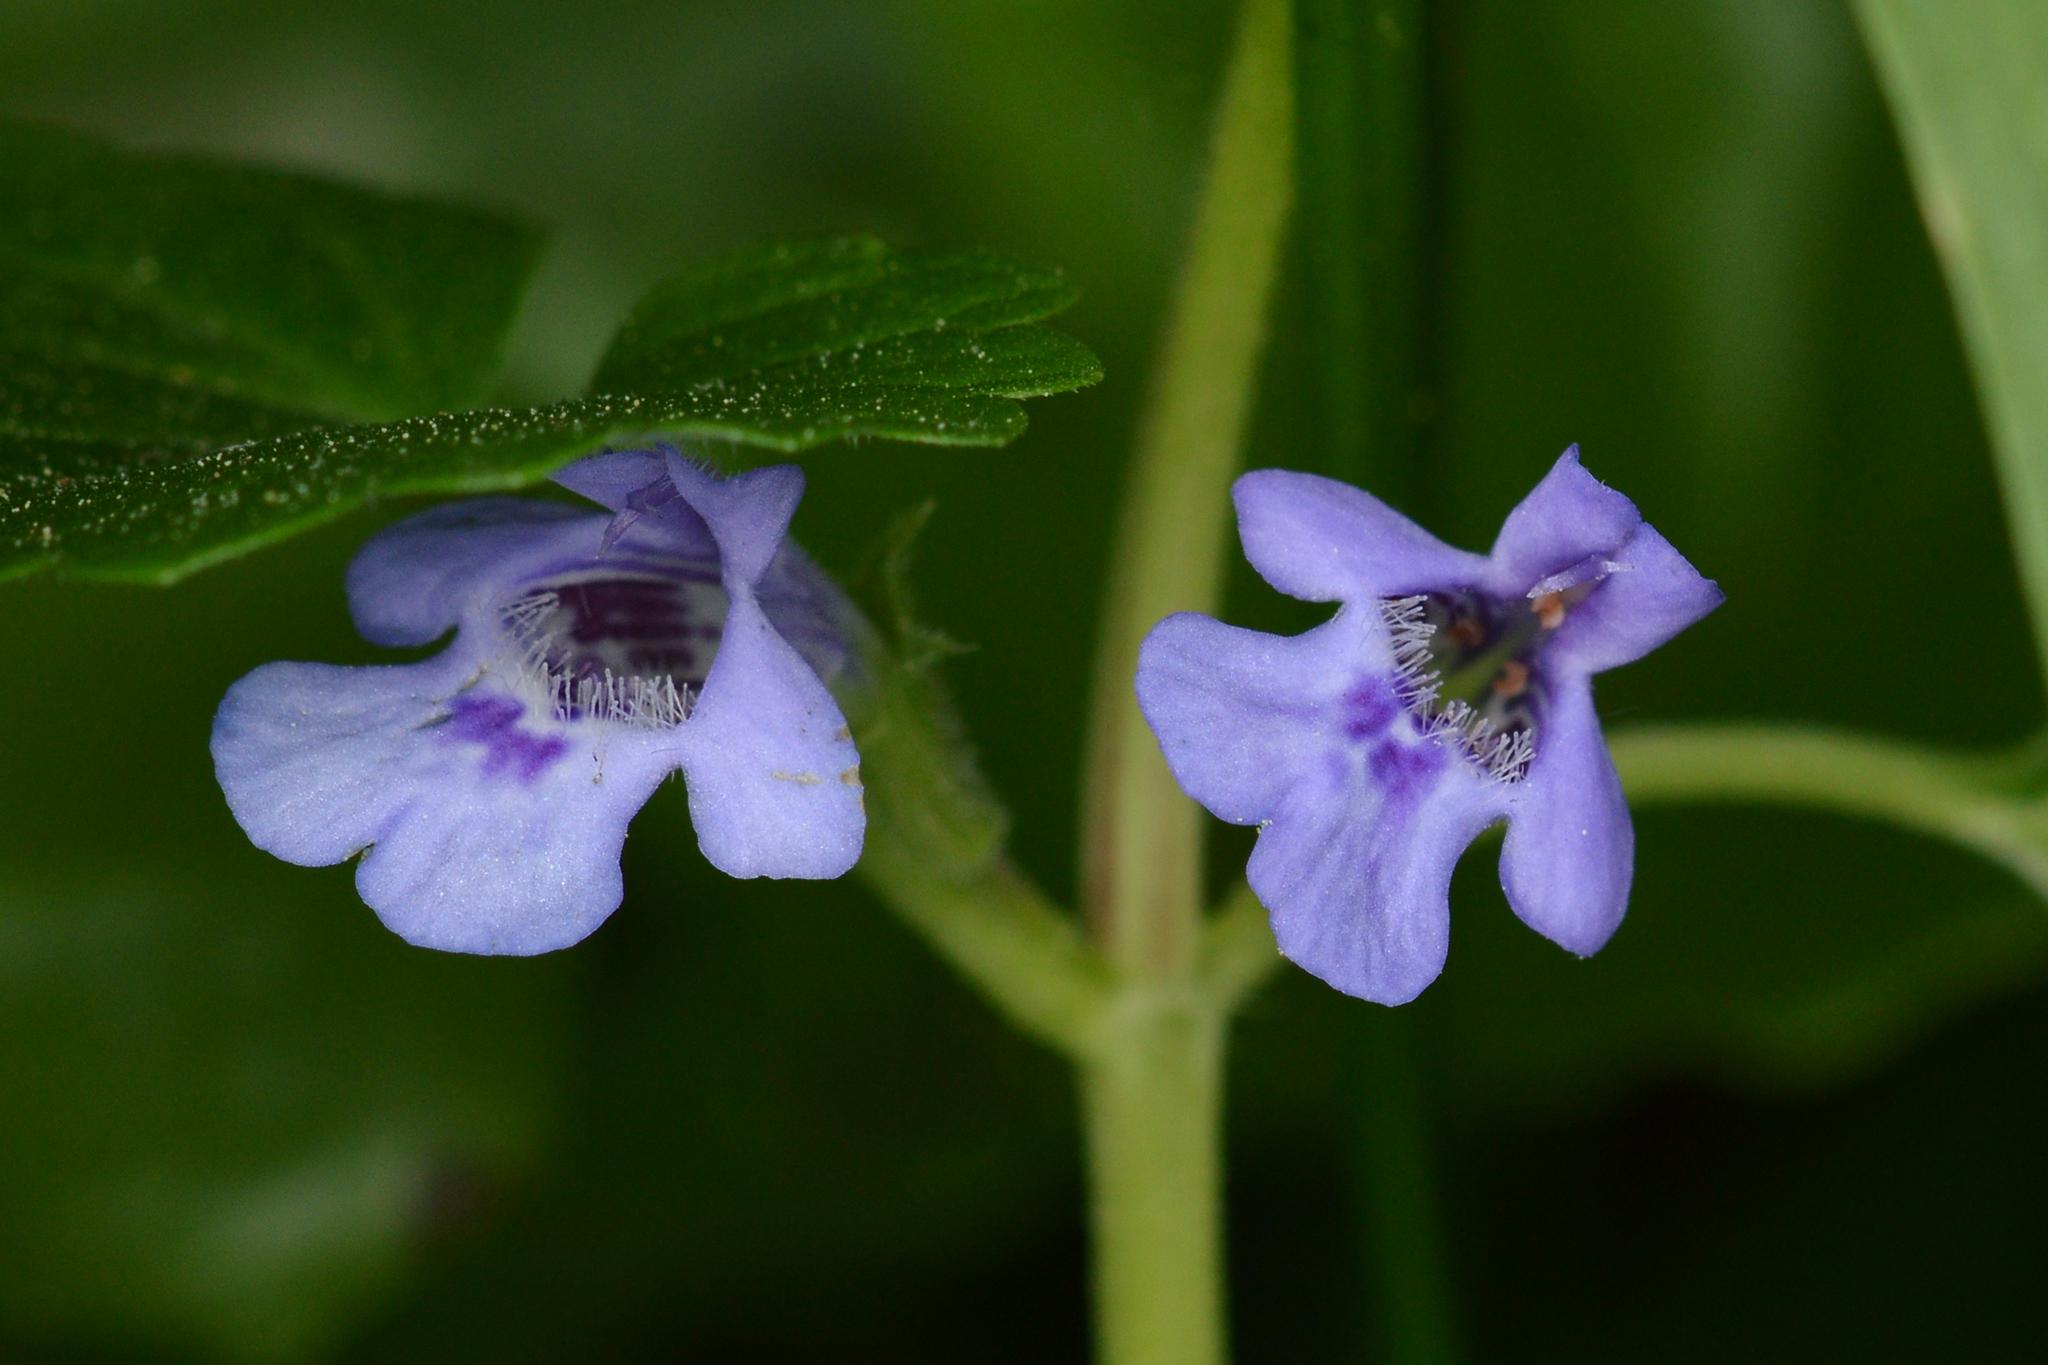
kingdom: Plantae
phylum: Tracheophyta
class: Magnoliopsida
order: Lamiales
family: Lamiaceae
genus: Glechoma
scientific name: Glechoma hederacea
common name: Ground ivy
